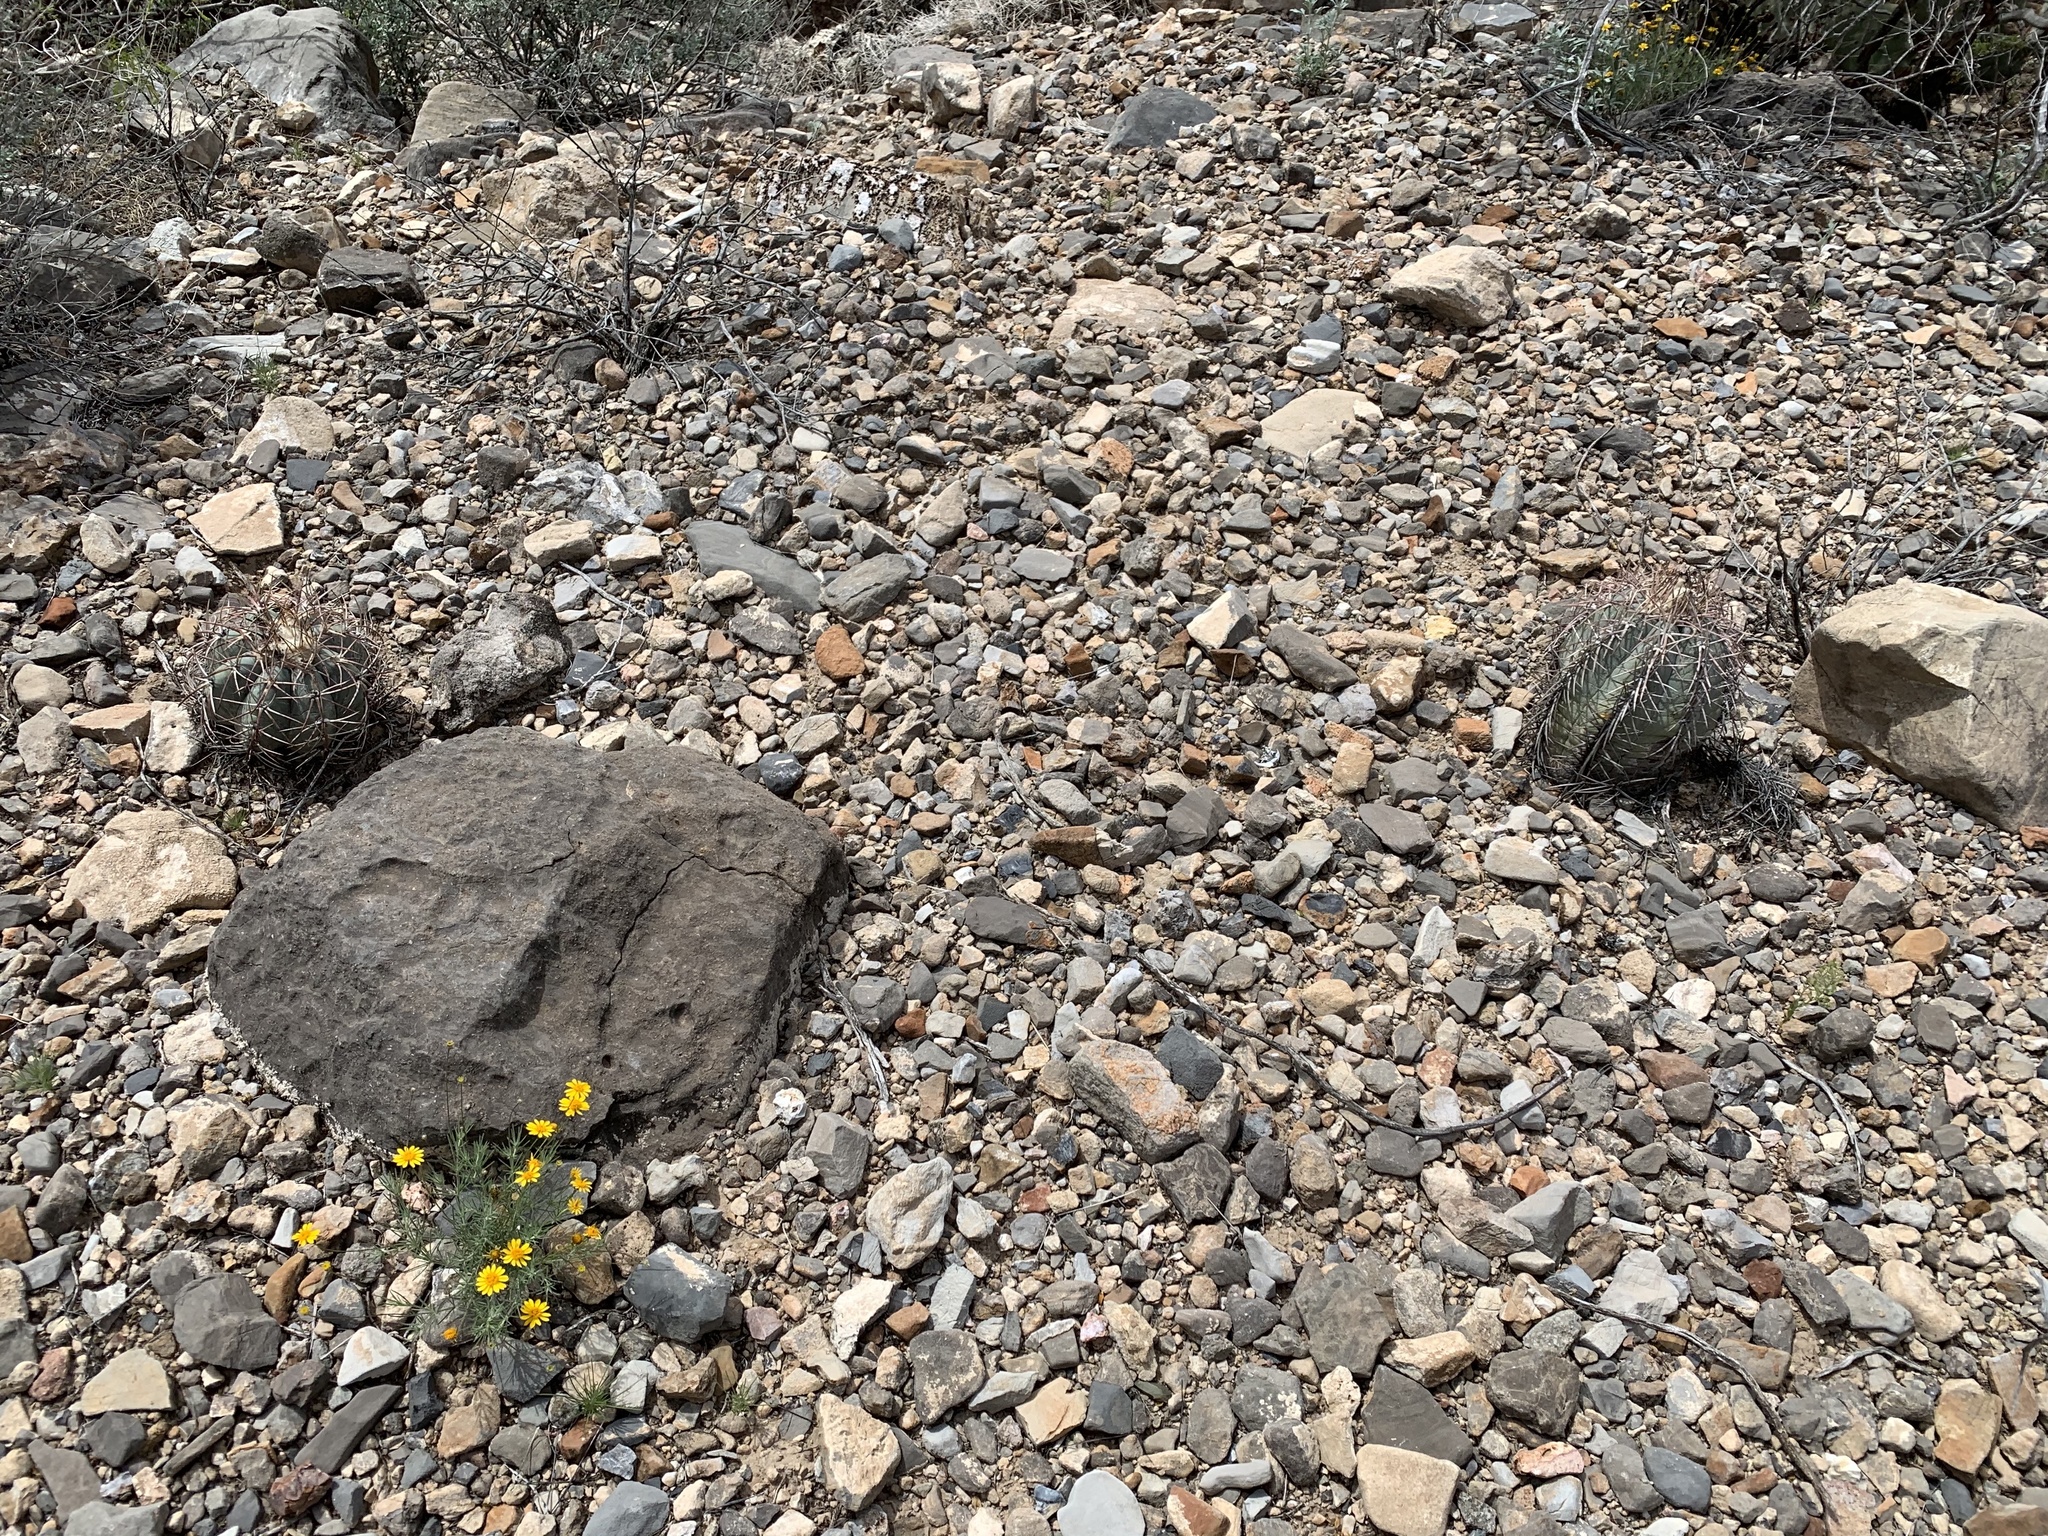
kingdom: Plantae
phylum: Tracheophyta
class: Magnoliopsida
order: Caryophyllales
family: Cactaceae
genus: Echinocactus
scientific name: Echinocactus horizonthalonius
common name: Devilshead
